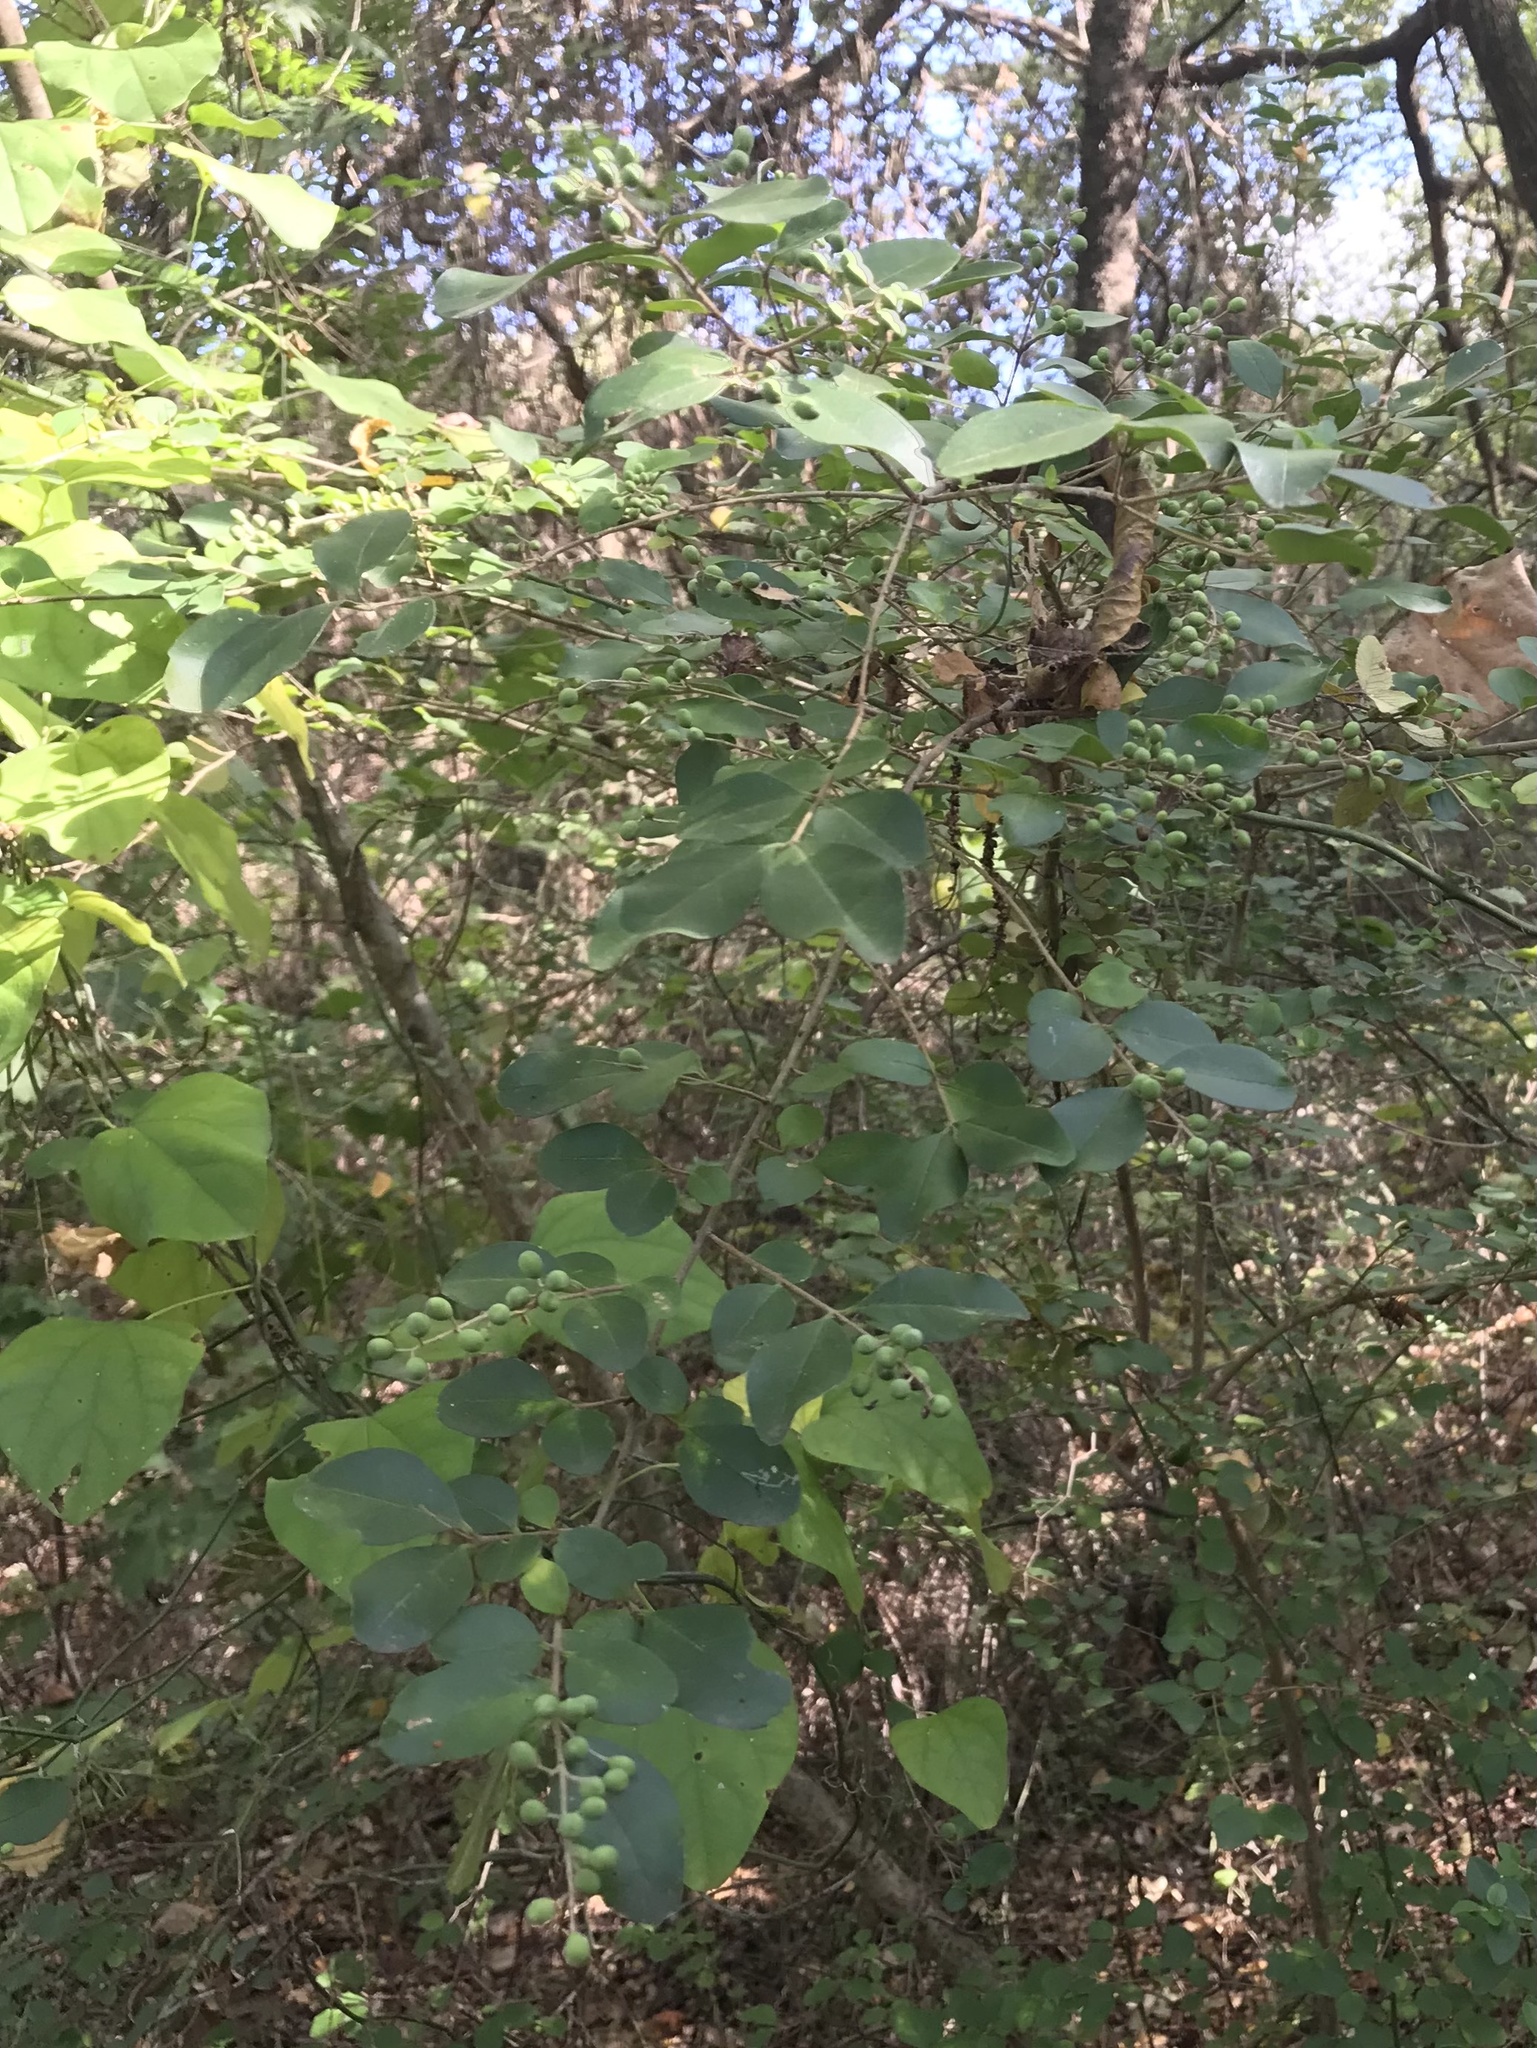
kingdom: Plantae
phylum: Tracheophyta
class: Magnoliopsida
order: Lamiales
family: Oleaceae
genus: Ligustrum
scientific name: Ligustrum sinense
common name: Chinese privet
